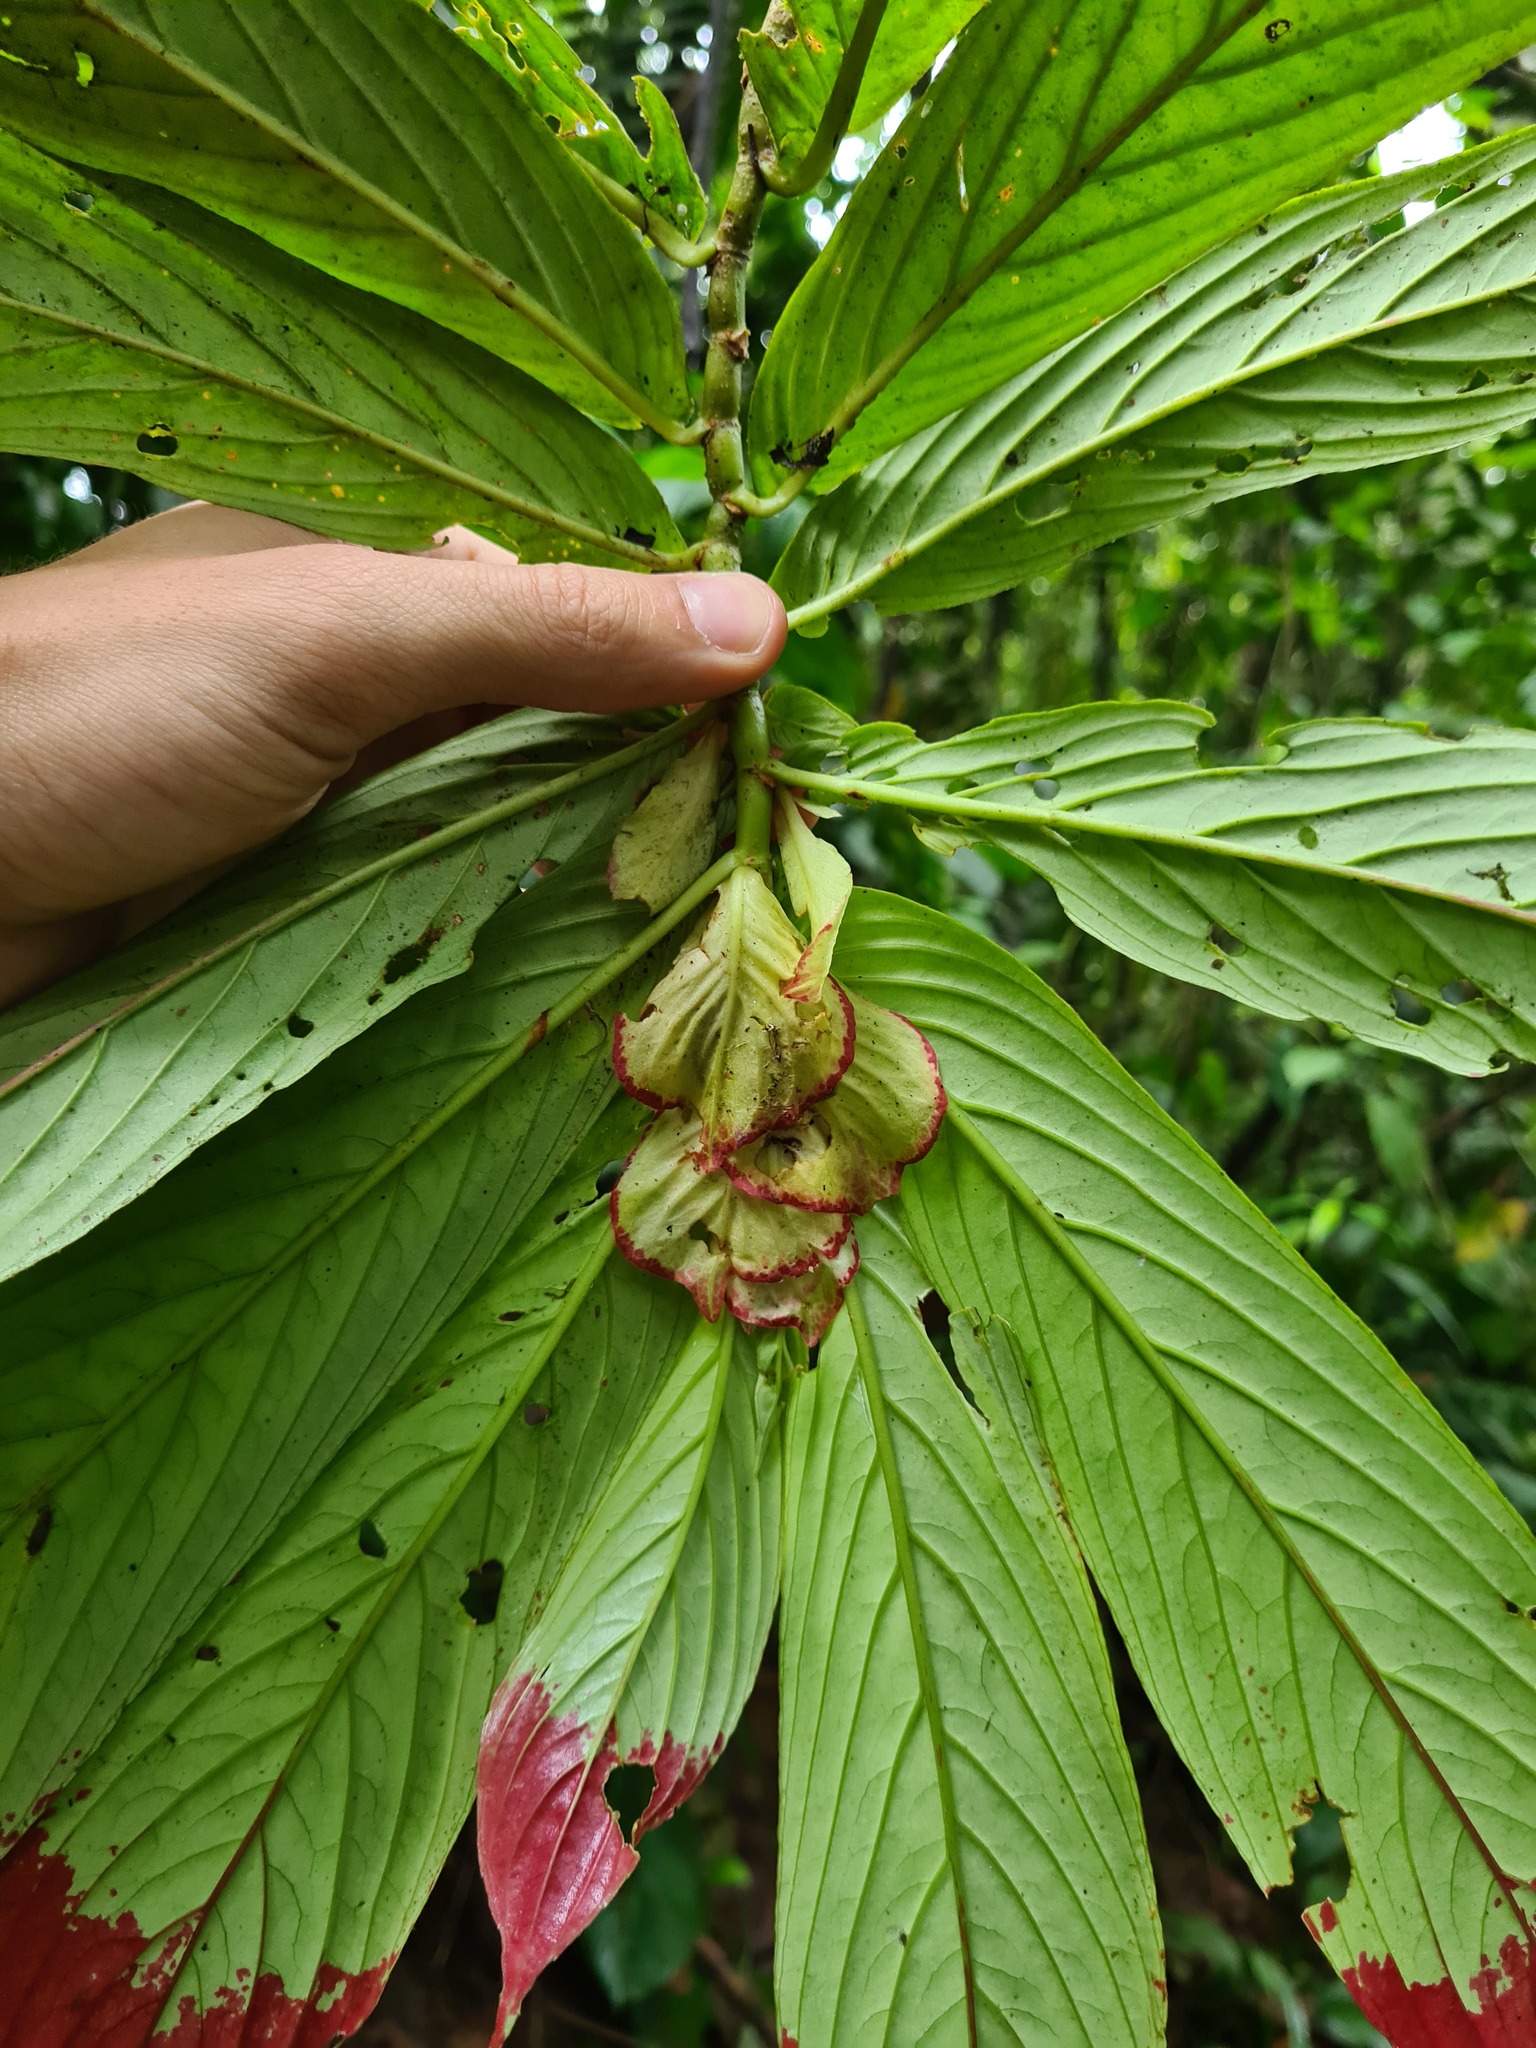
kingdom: Plantae
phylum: Tracheophyta
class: Magnoliopsida
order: Lamiales
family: Gesneriaceae
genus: Columnea
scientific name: Columnea medicinalis
